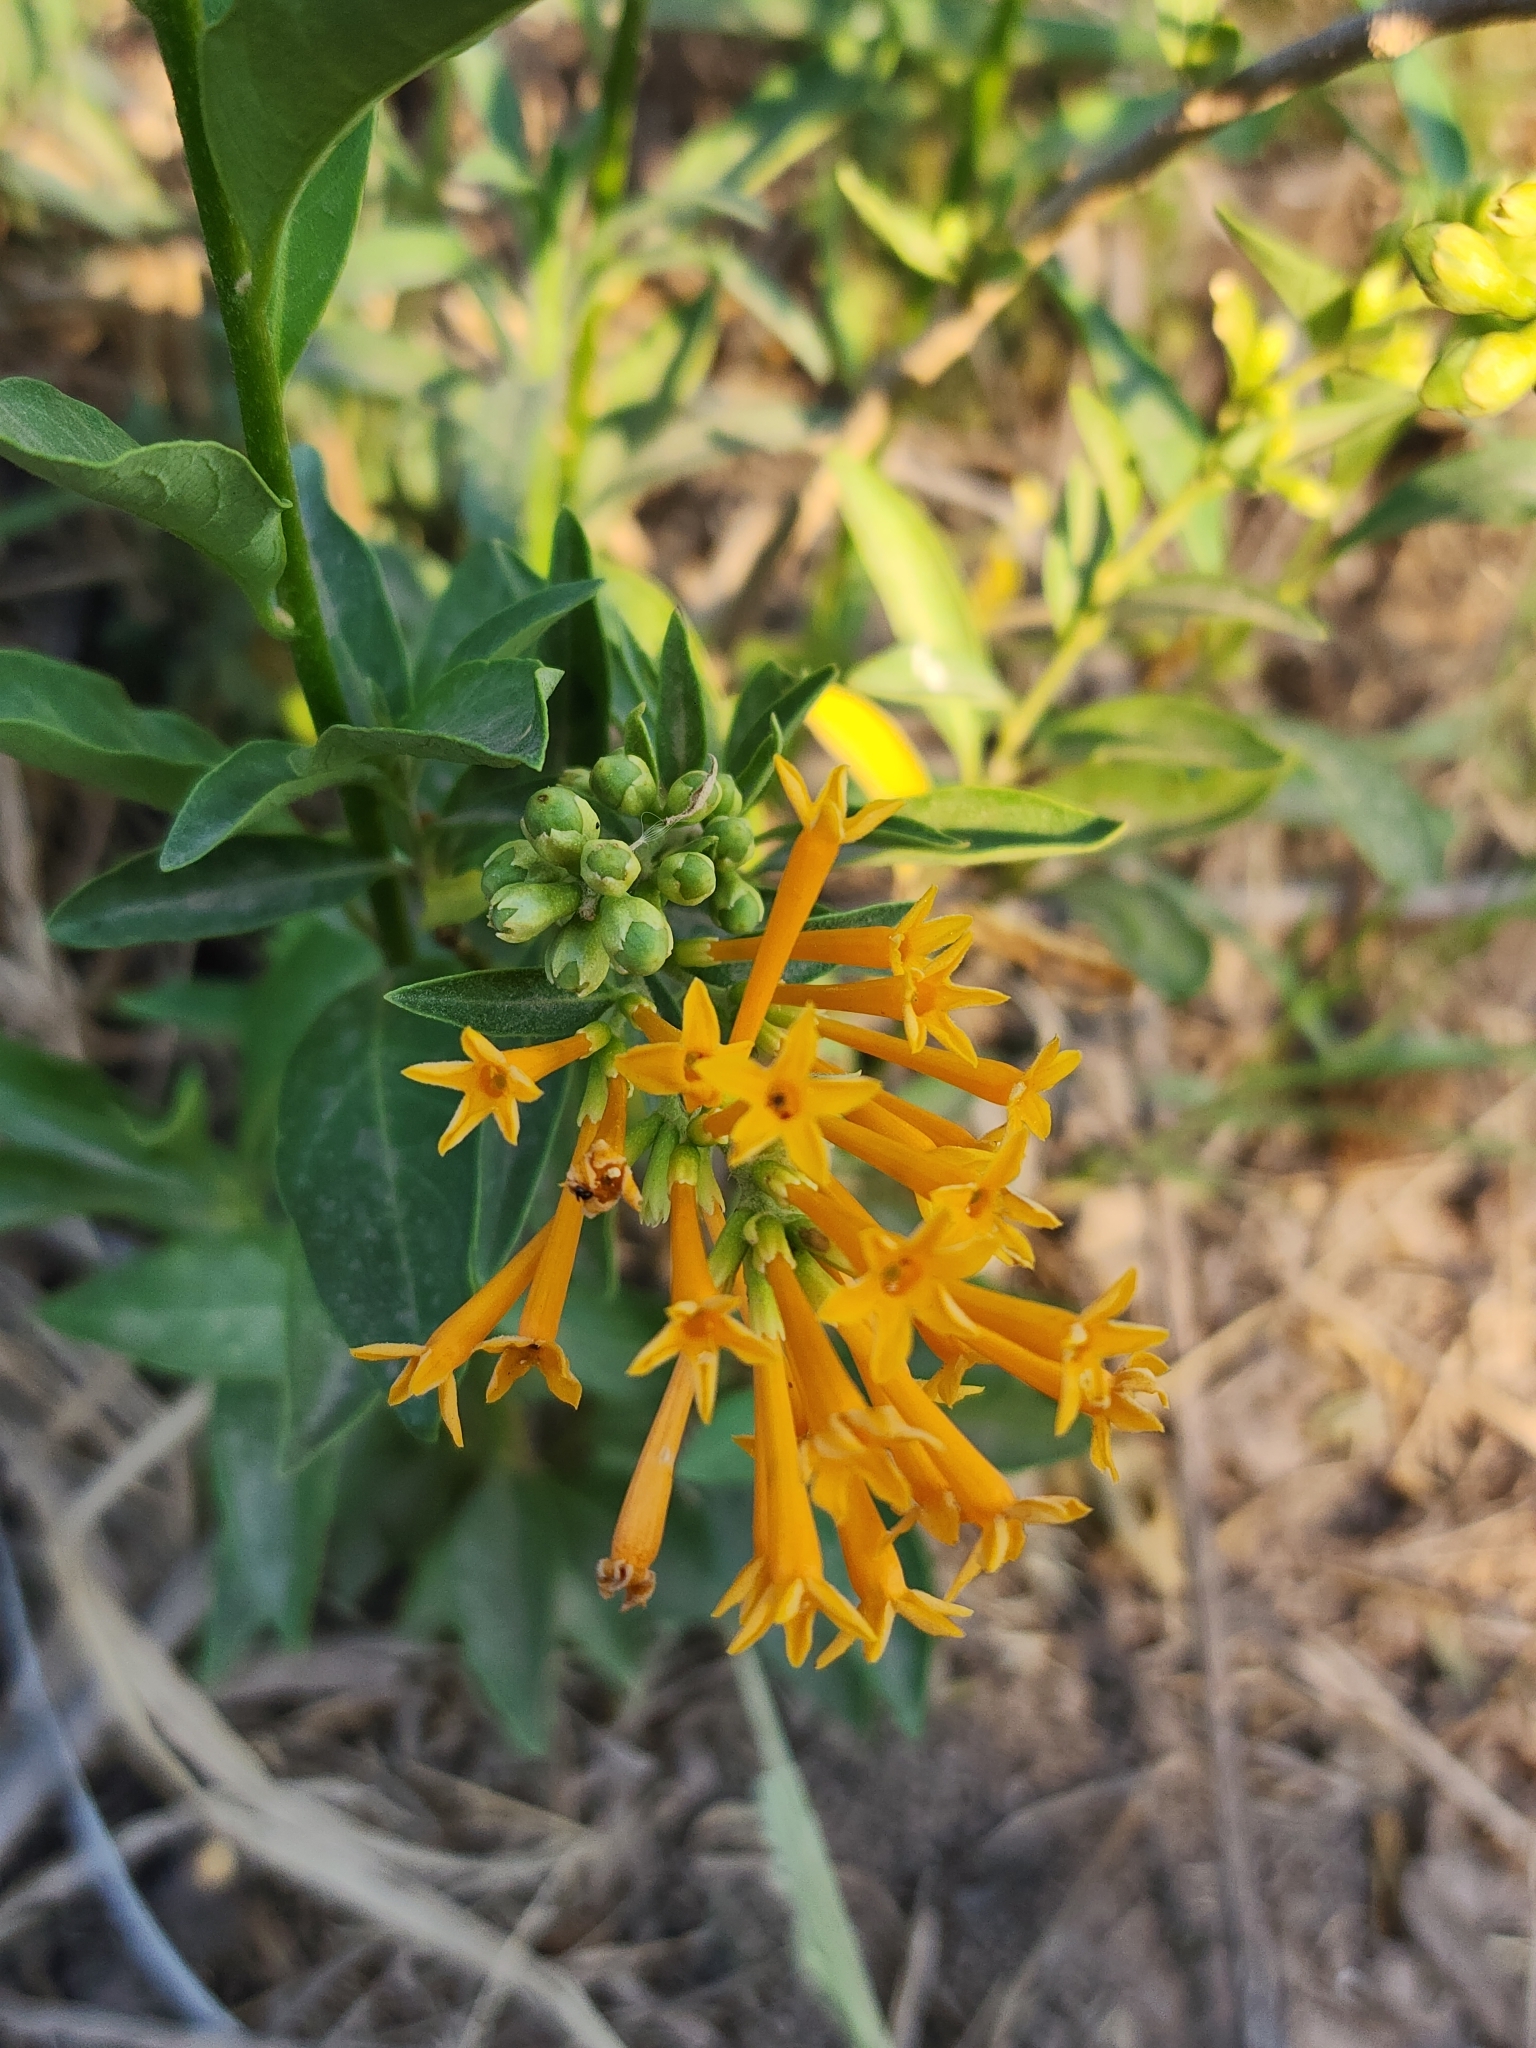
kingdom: Plantae
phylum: Tracheophyta
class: Magnoliopsida
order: Solanales
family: Solanaceae
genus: Cestrum
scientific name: Cestrum parqui
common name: Chilean cestrum
